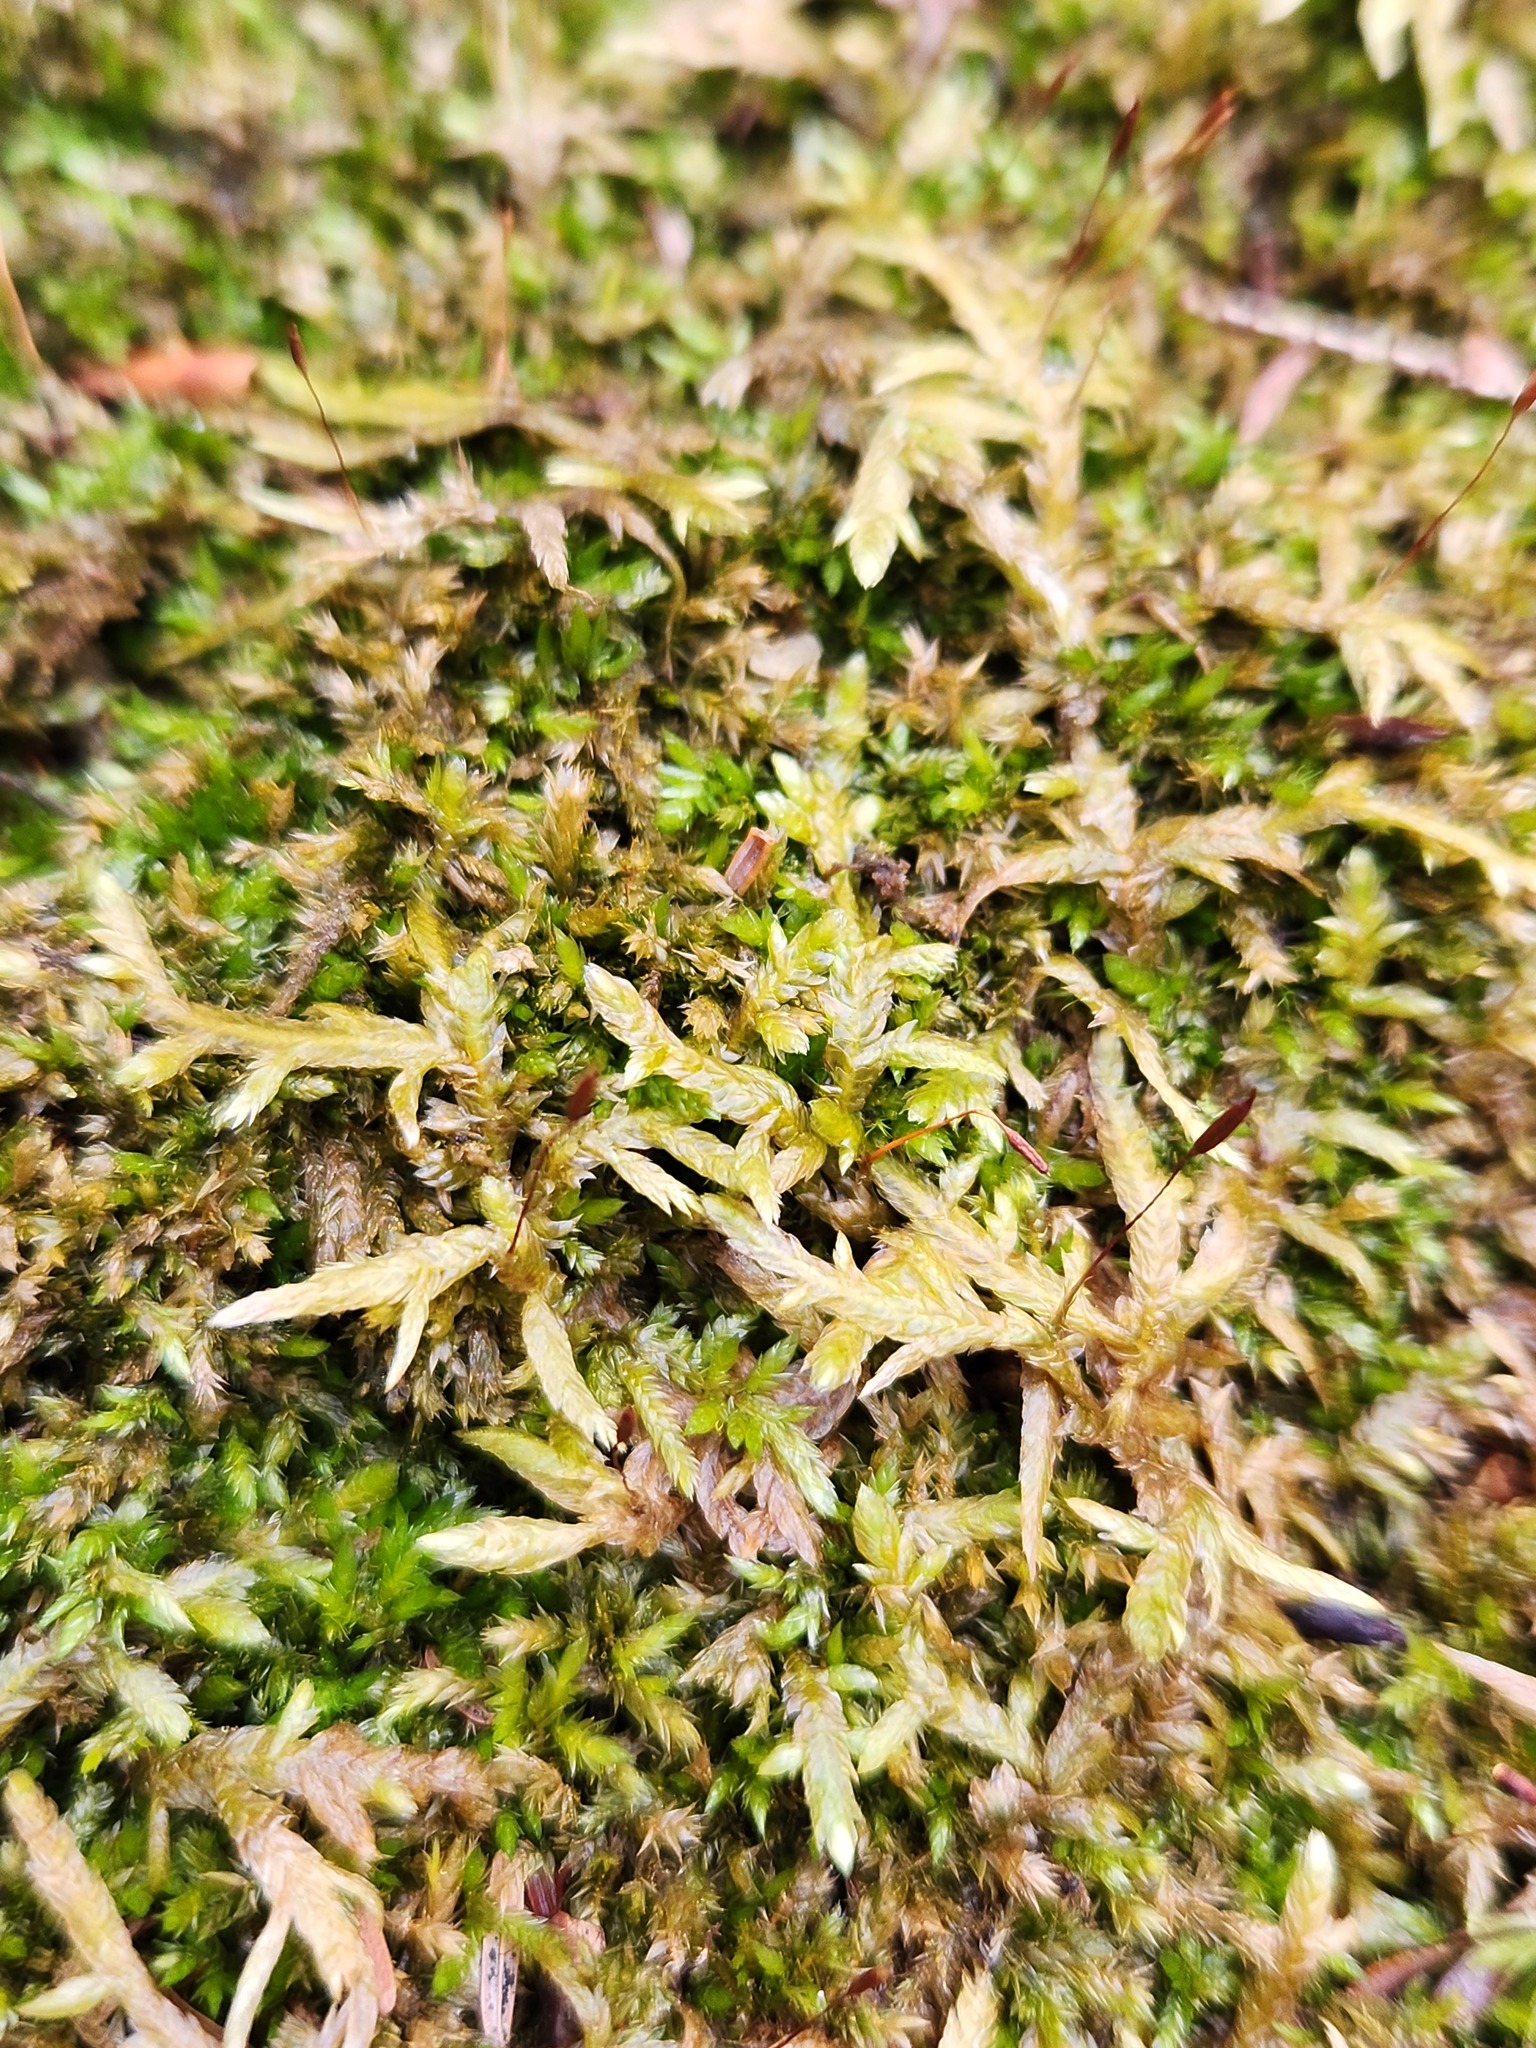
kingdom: Plantae
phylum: Bryophyta
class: Bryopsida
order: Hypnales
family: Entodontaceae
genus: Entodon
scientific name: Entodon cladorrhizans
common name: Flat-stemmed entodon moss
